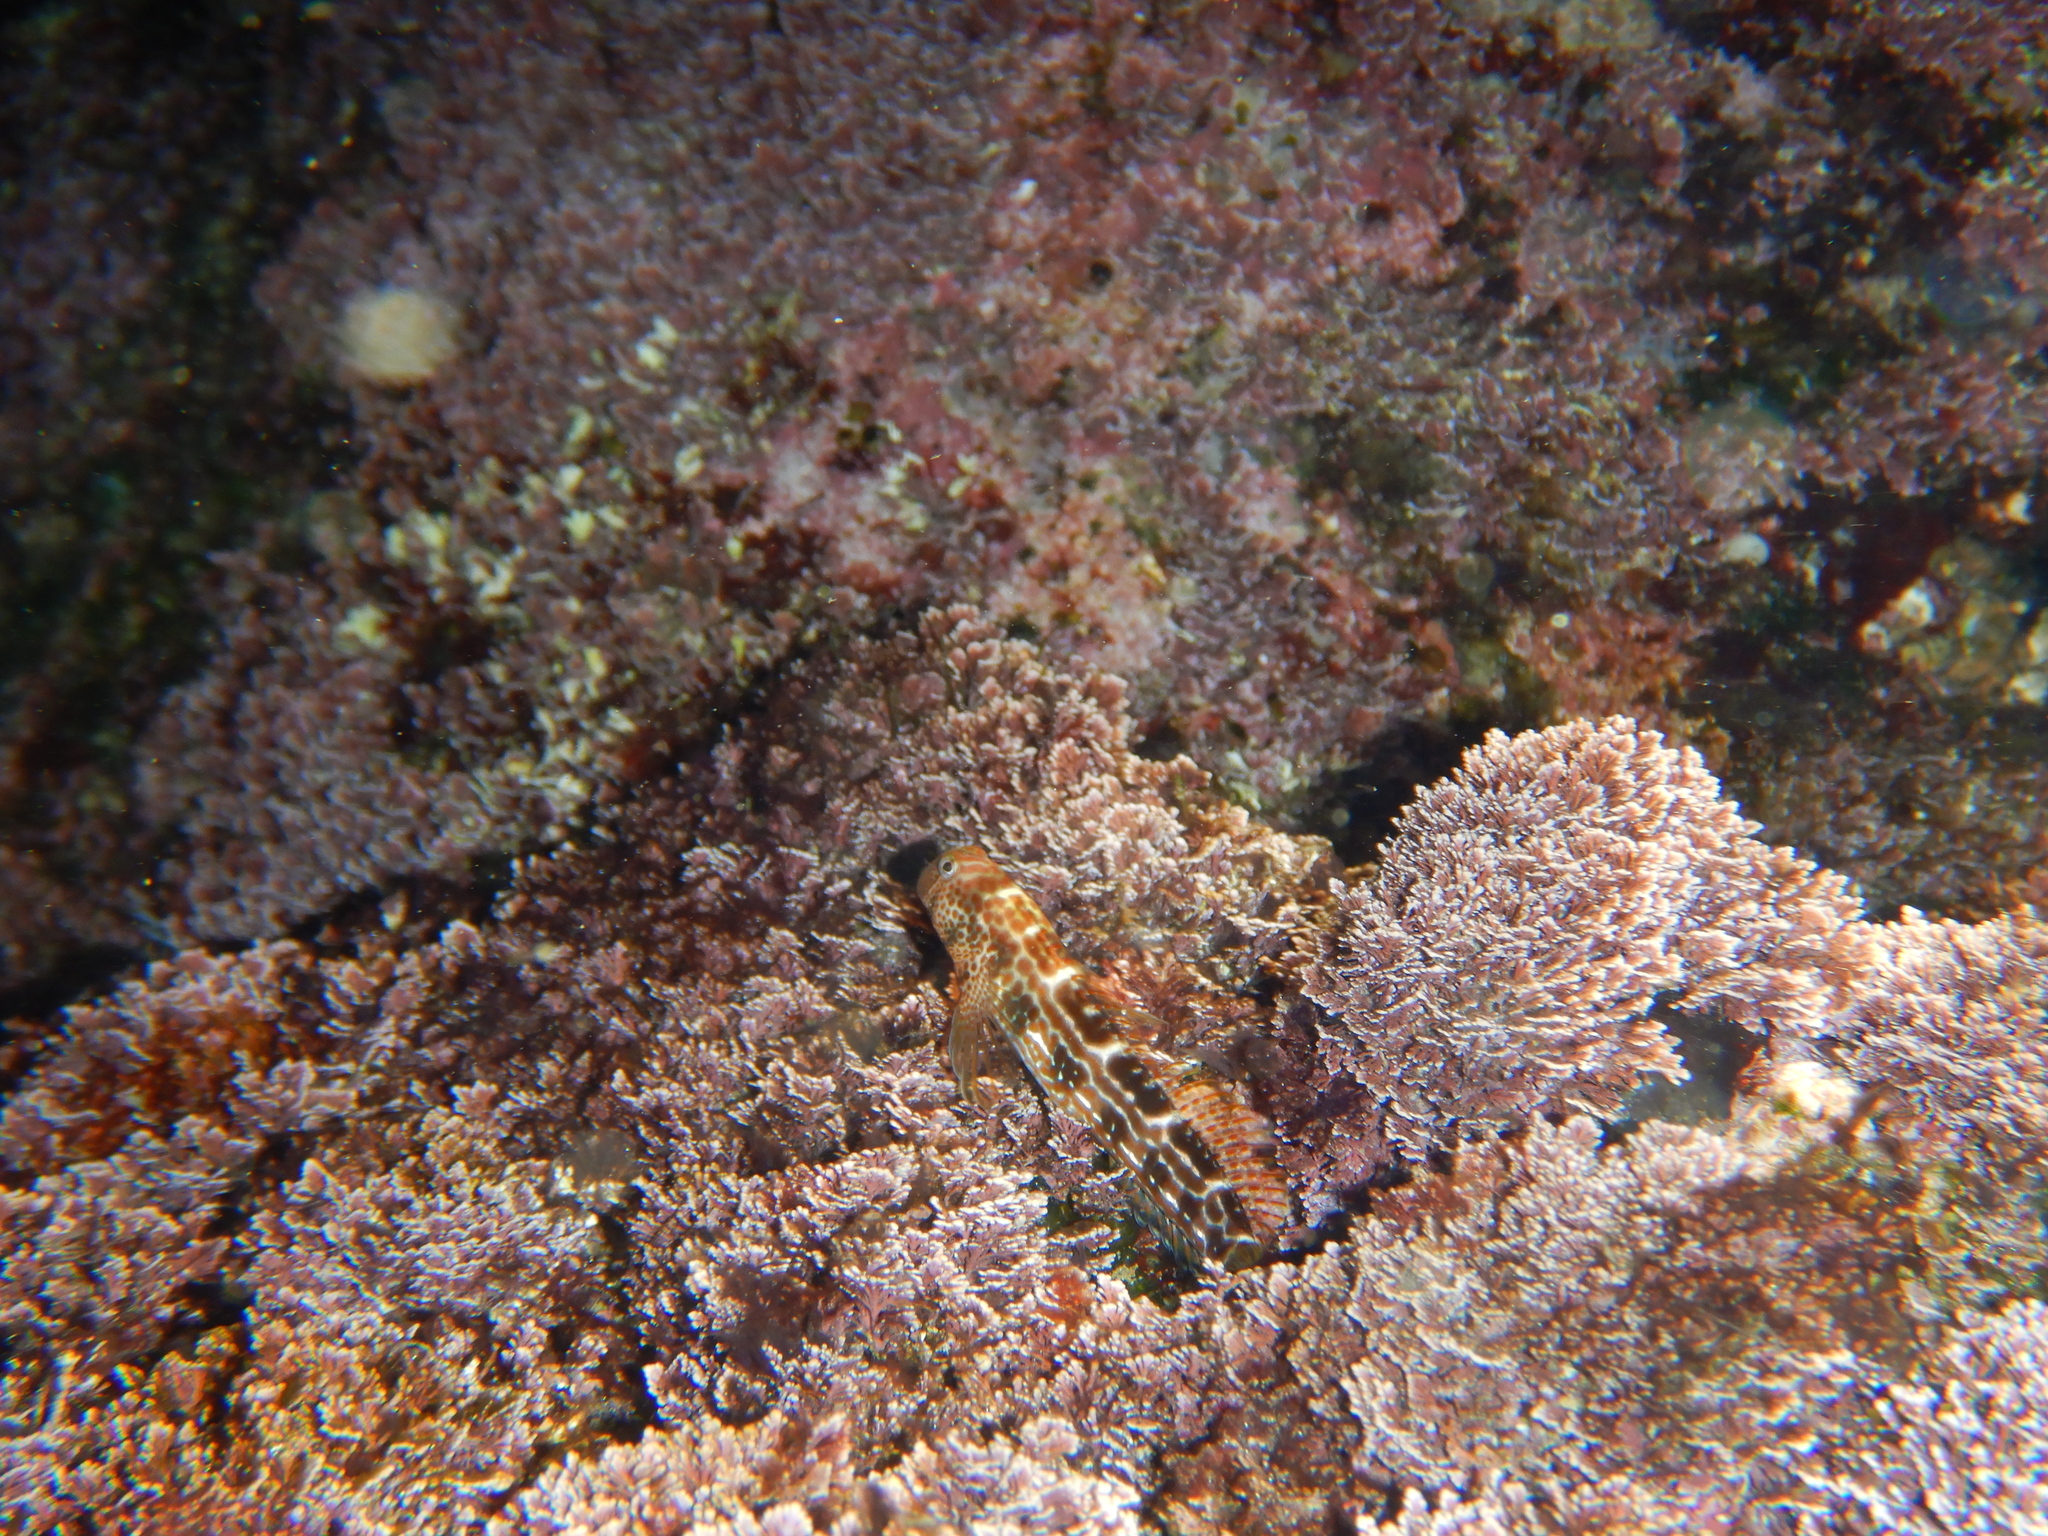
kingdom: Animalia
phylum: Chordata
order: Perciformes
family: Blenniidae
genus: Microlipophrys
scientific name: Microlipophrys canevae
